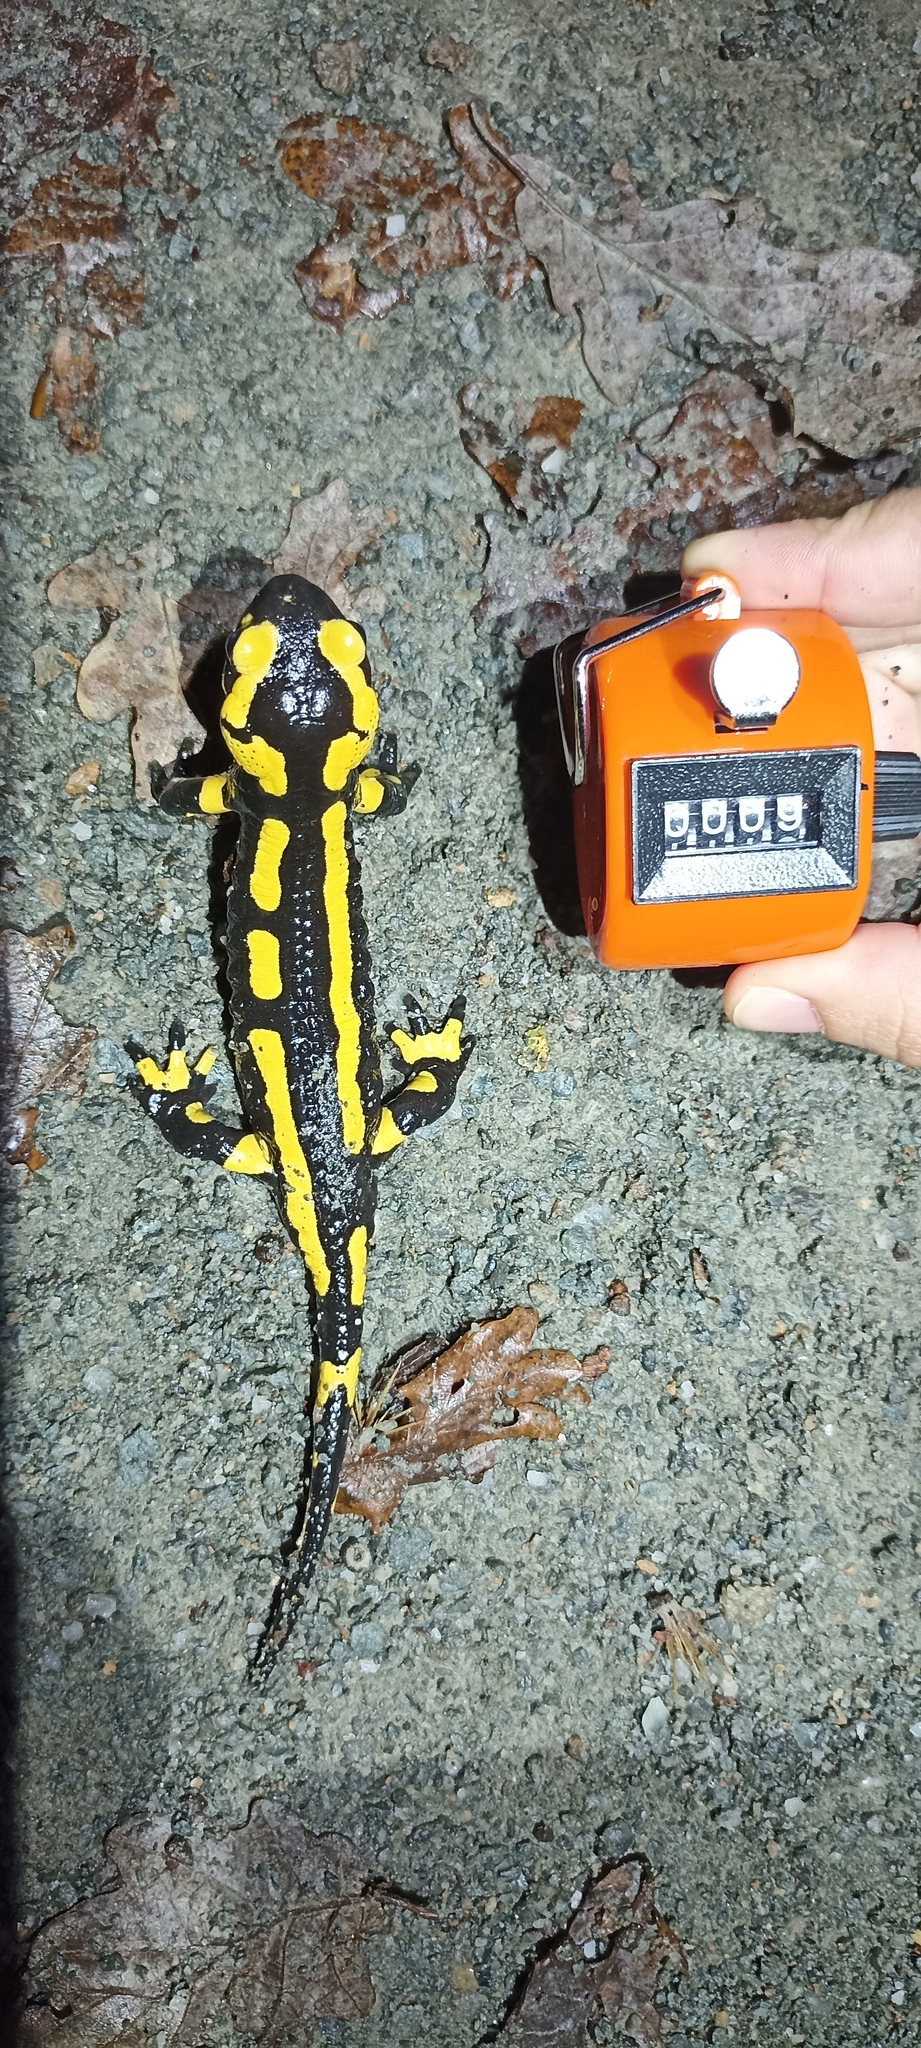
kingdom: Animalia
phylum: Chordata
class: Amphibia
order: Caudata
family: Salamandridae
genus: Salamandra
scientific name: Salamandra salamandra
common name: Fire salamander
